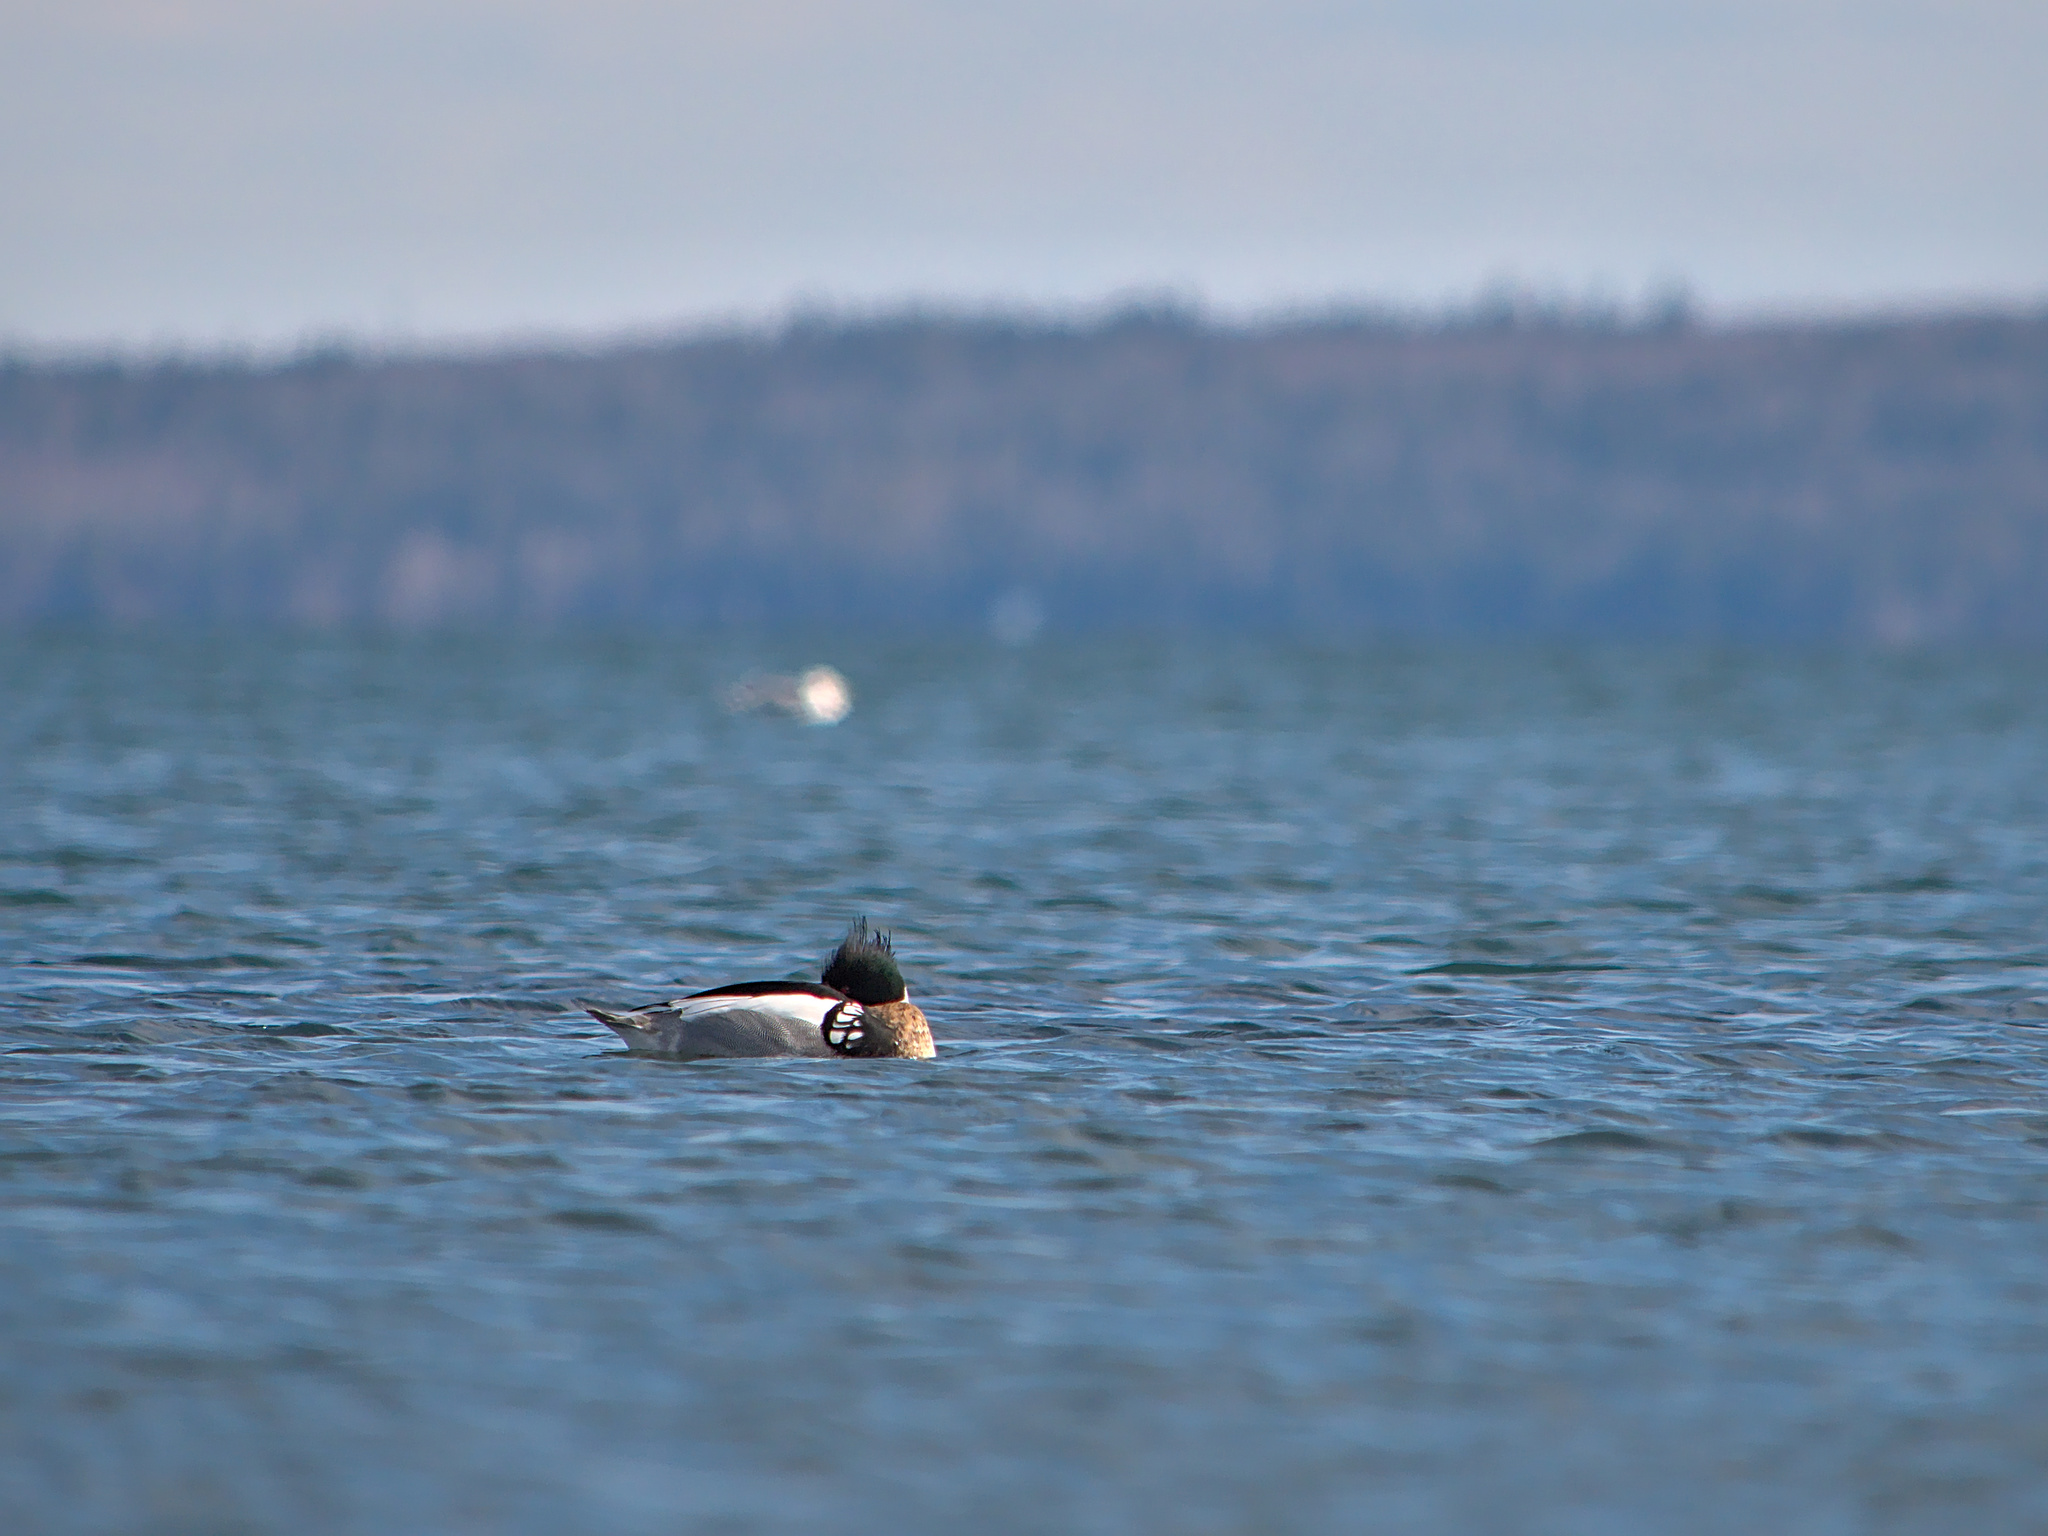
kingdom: Animalia
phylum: Chordata
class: Aves
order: Anseriformes
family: Anatidae
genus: Mergus
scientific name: Mergus serrator
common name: Red-breasted merganser
